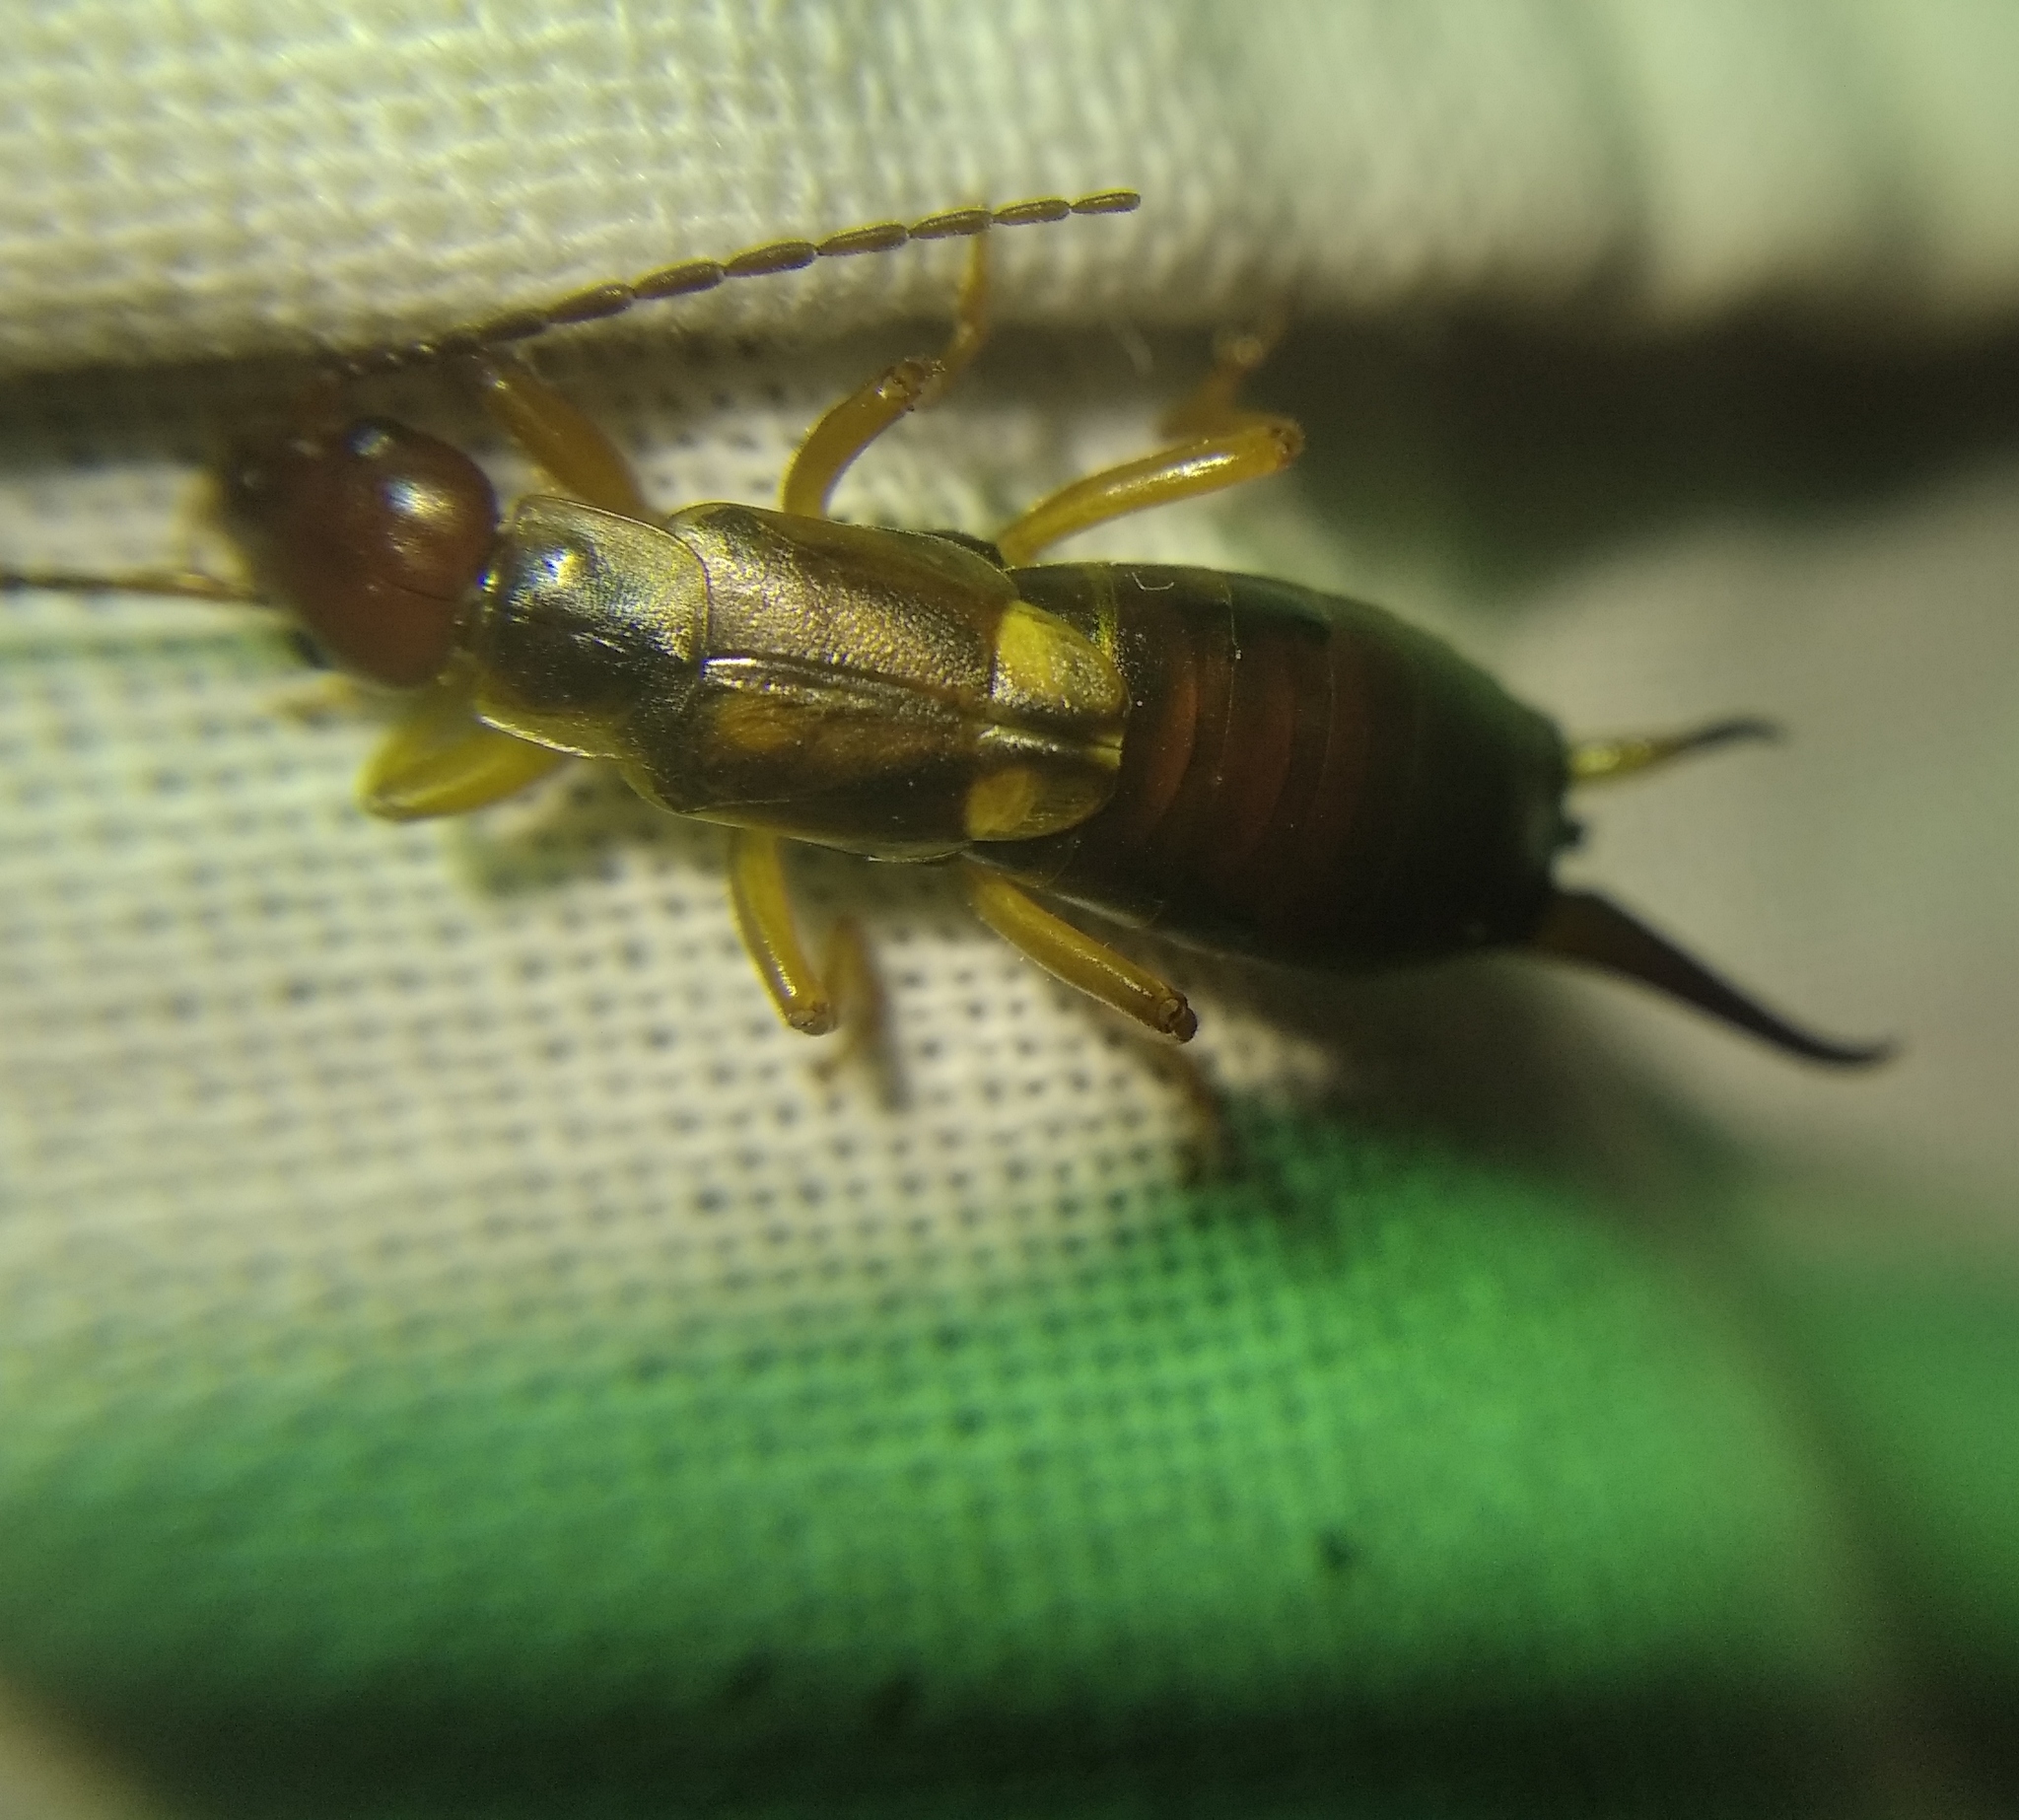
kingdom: Animalia
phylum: Arthropoda
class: Insecta
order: Dermaptera
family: Forficulidae
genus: Forficula
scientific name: Forficula
